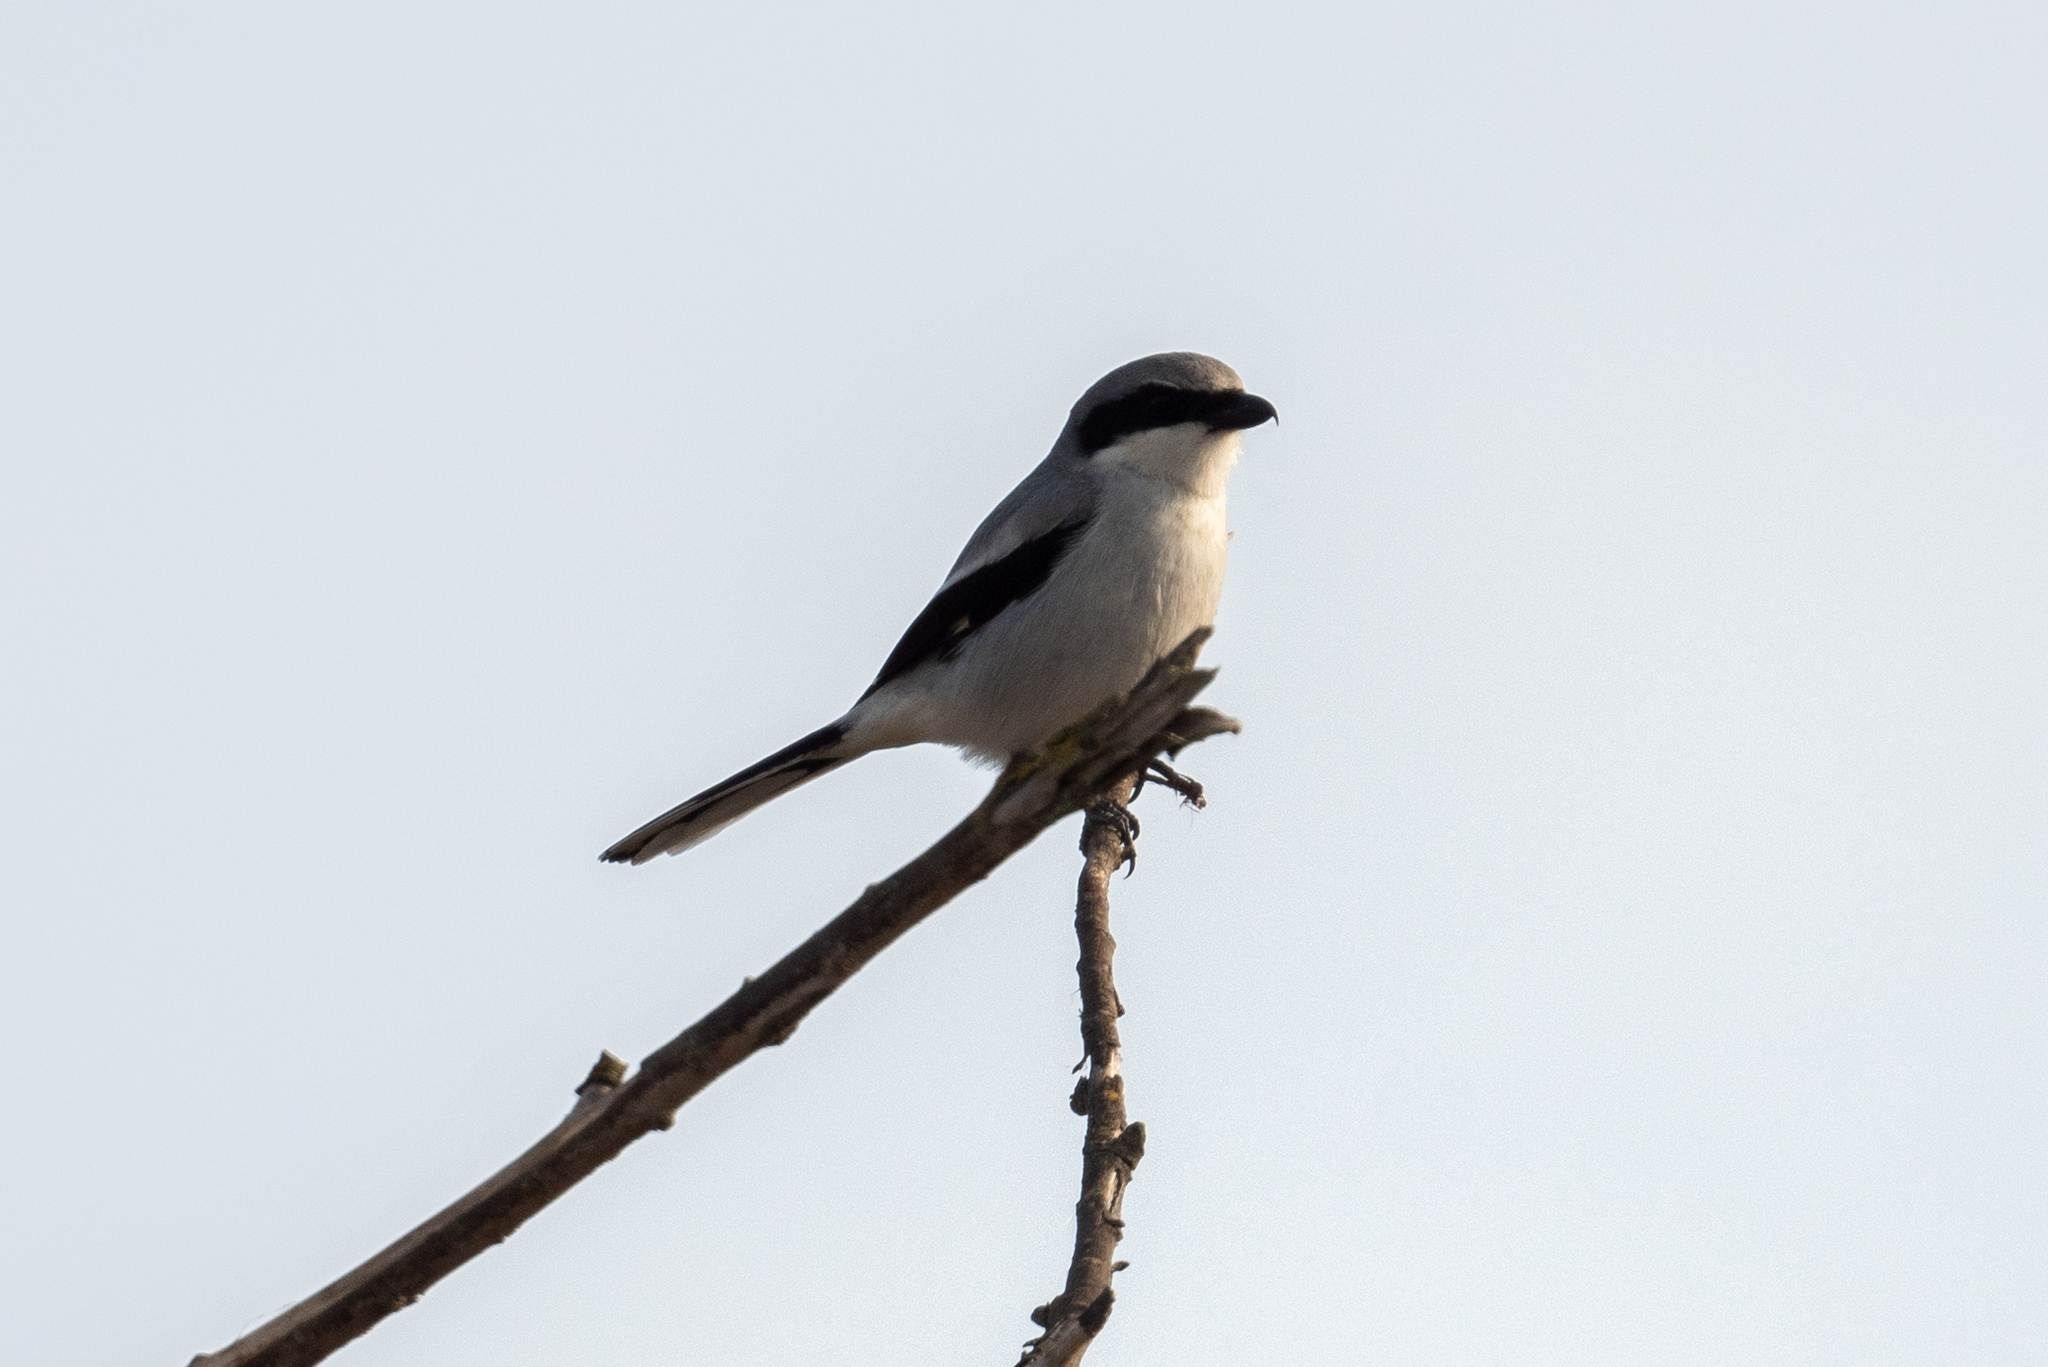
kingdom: Animalia
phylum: Chordata
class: Aves
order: Passeriformes
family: Laniidae
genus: Lanius
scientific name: Lanius ludovicianus
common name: Loggerhead shrike
